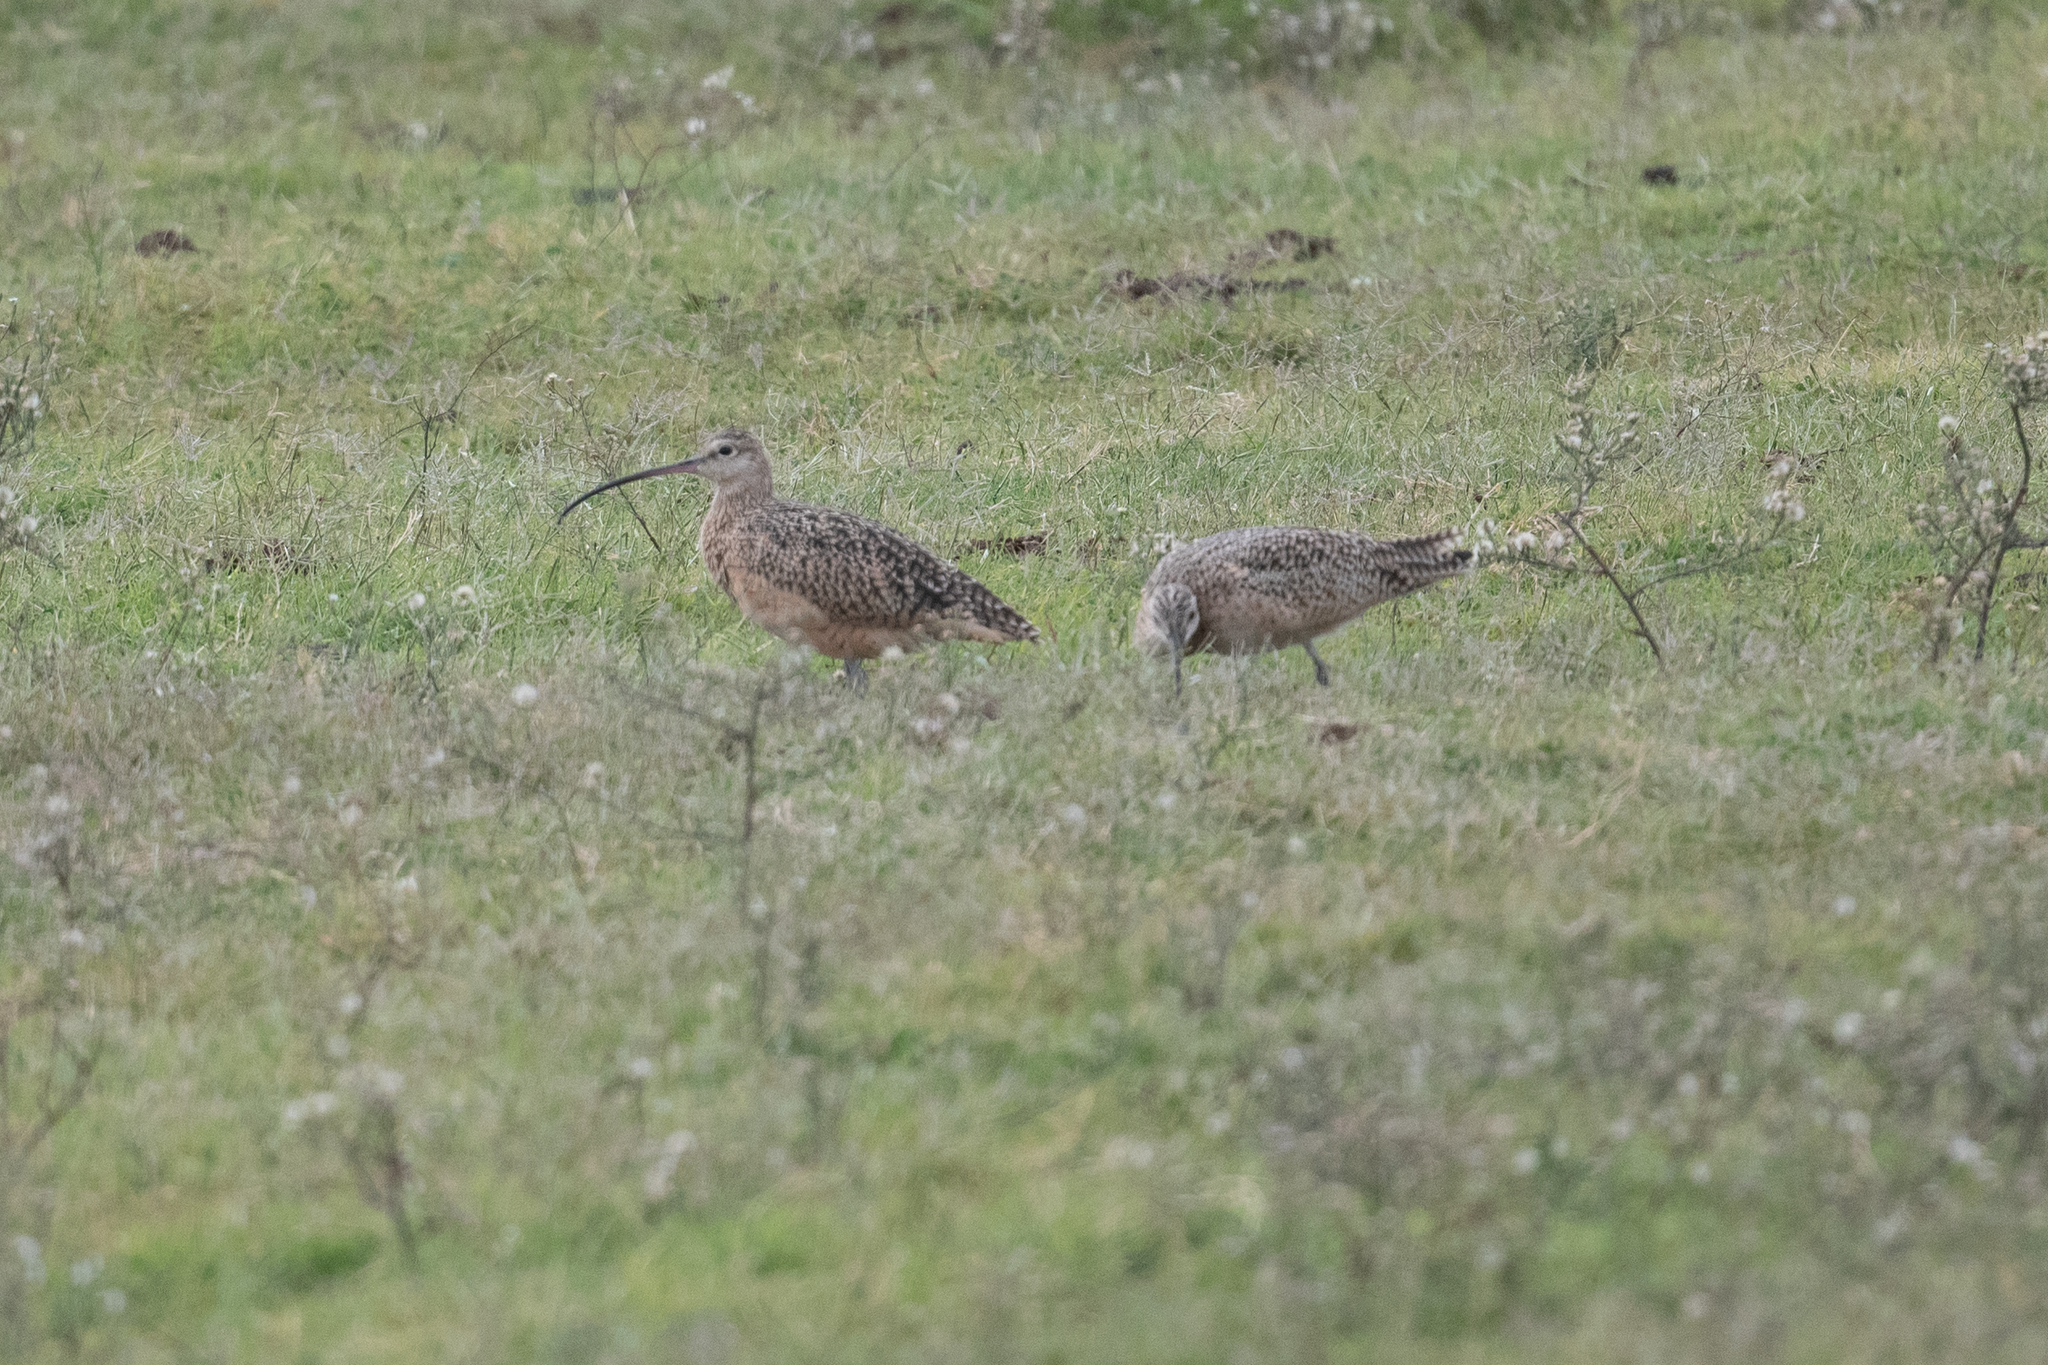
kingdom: Animalia
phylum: Chordata
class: Aves
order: Charadriiformes
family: Scolopacidae
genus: Numenius
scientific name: Numenius americanus
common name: Long-billed curlew
